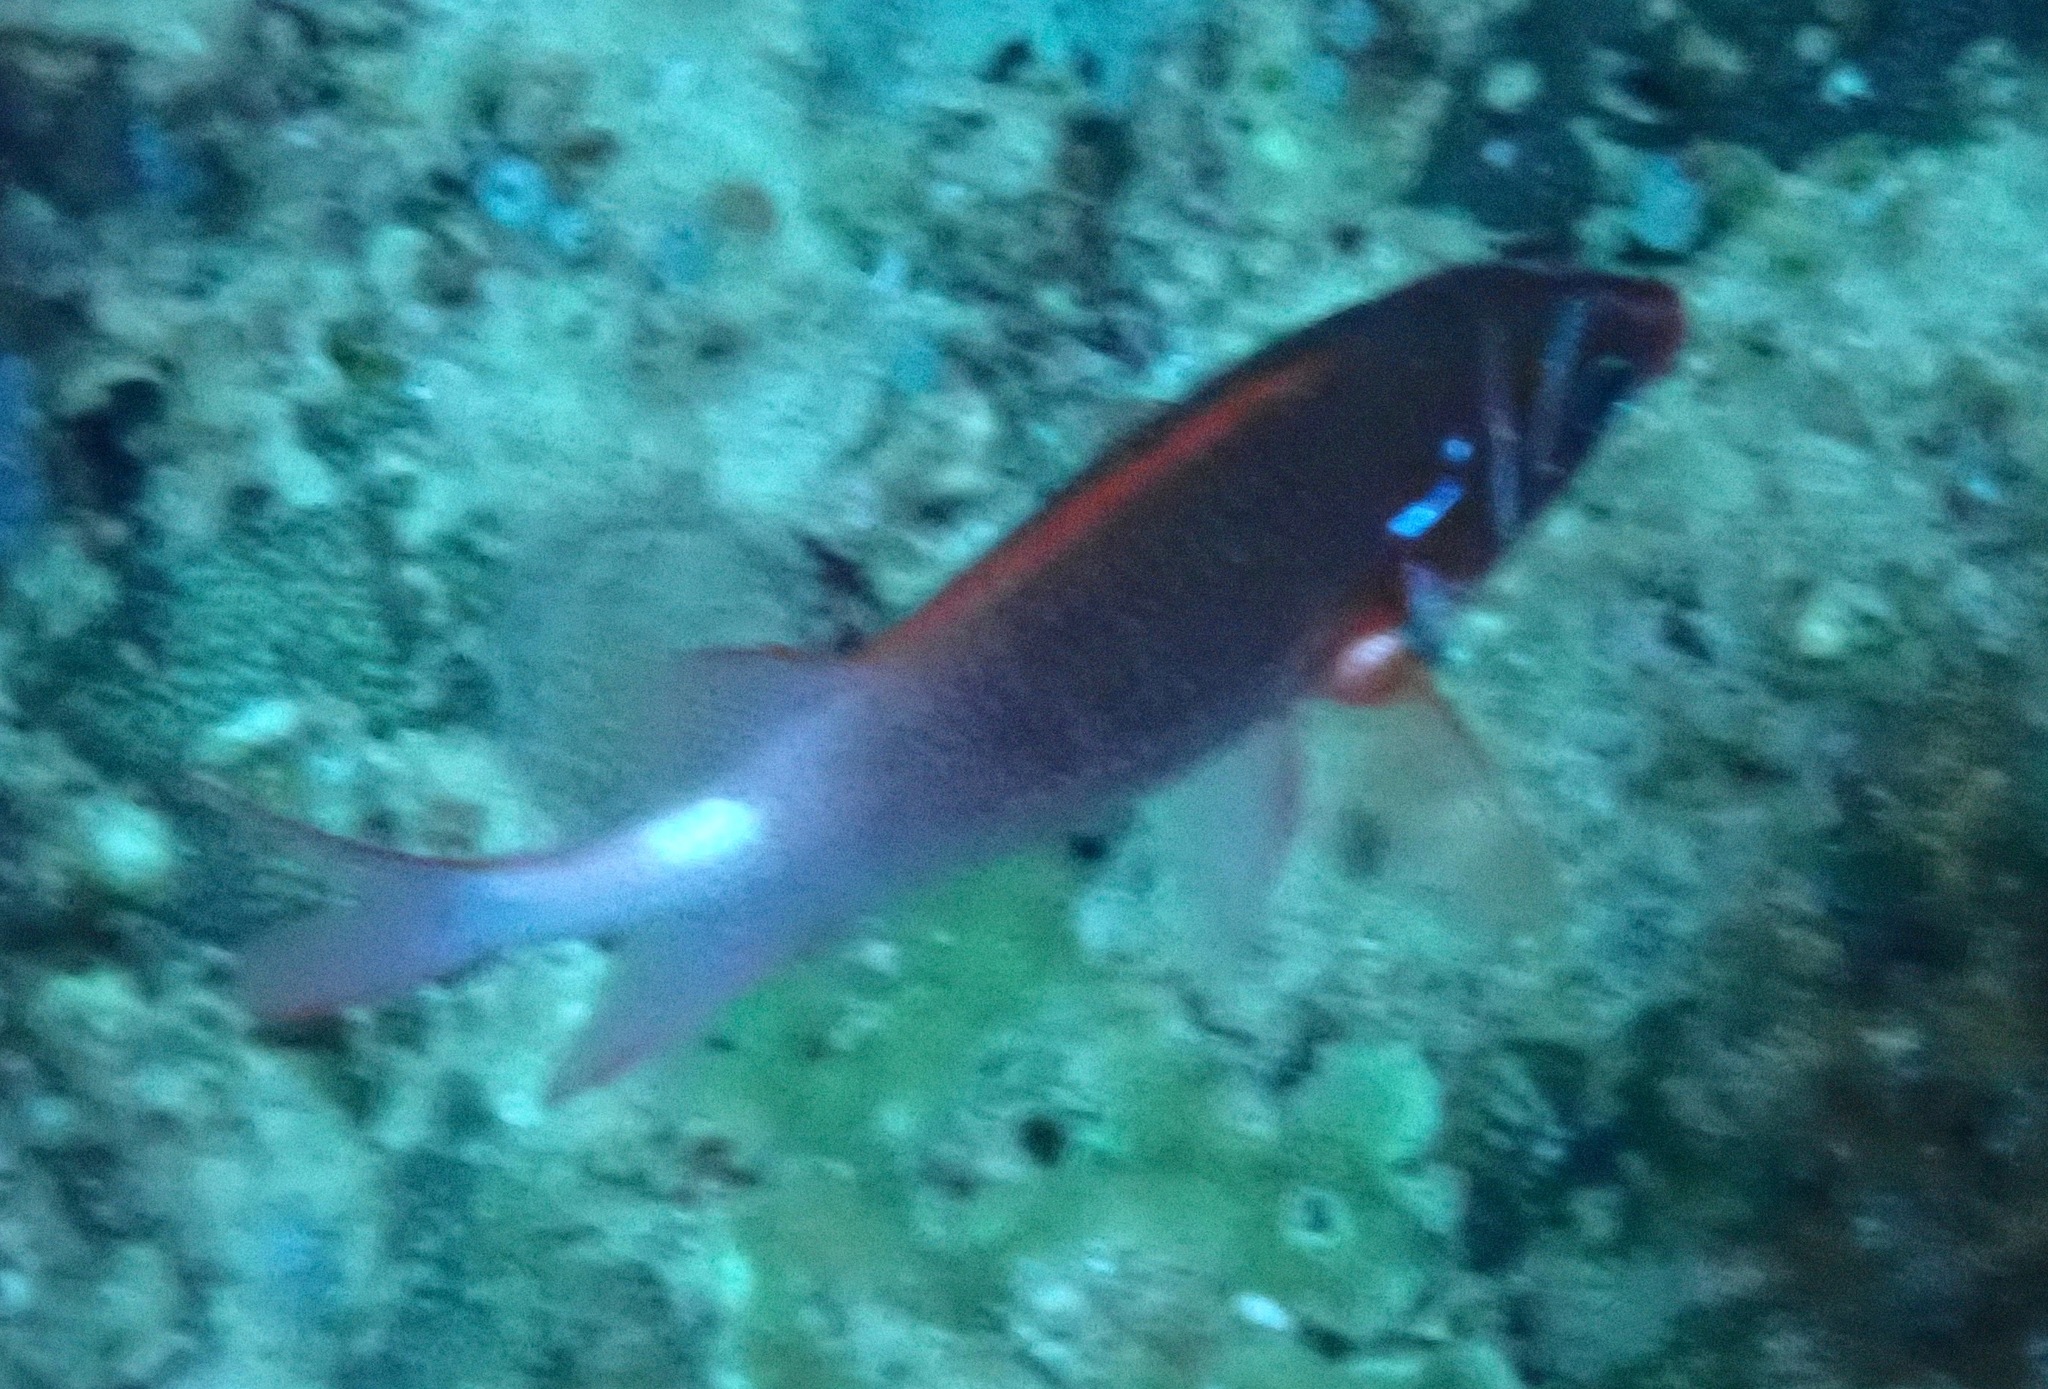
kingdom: Animalia
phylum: Chordata
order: Beryciformes
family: Holocentridae
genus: Sargocentron
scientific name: Sargocentron caudimaculatum
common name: Fanfin soldier
